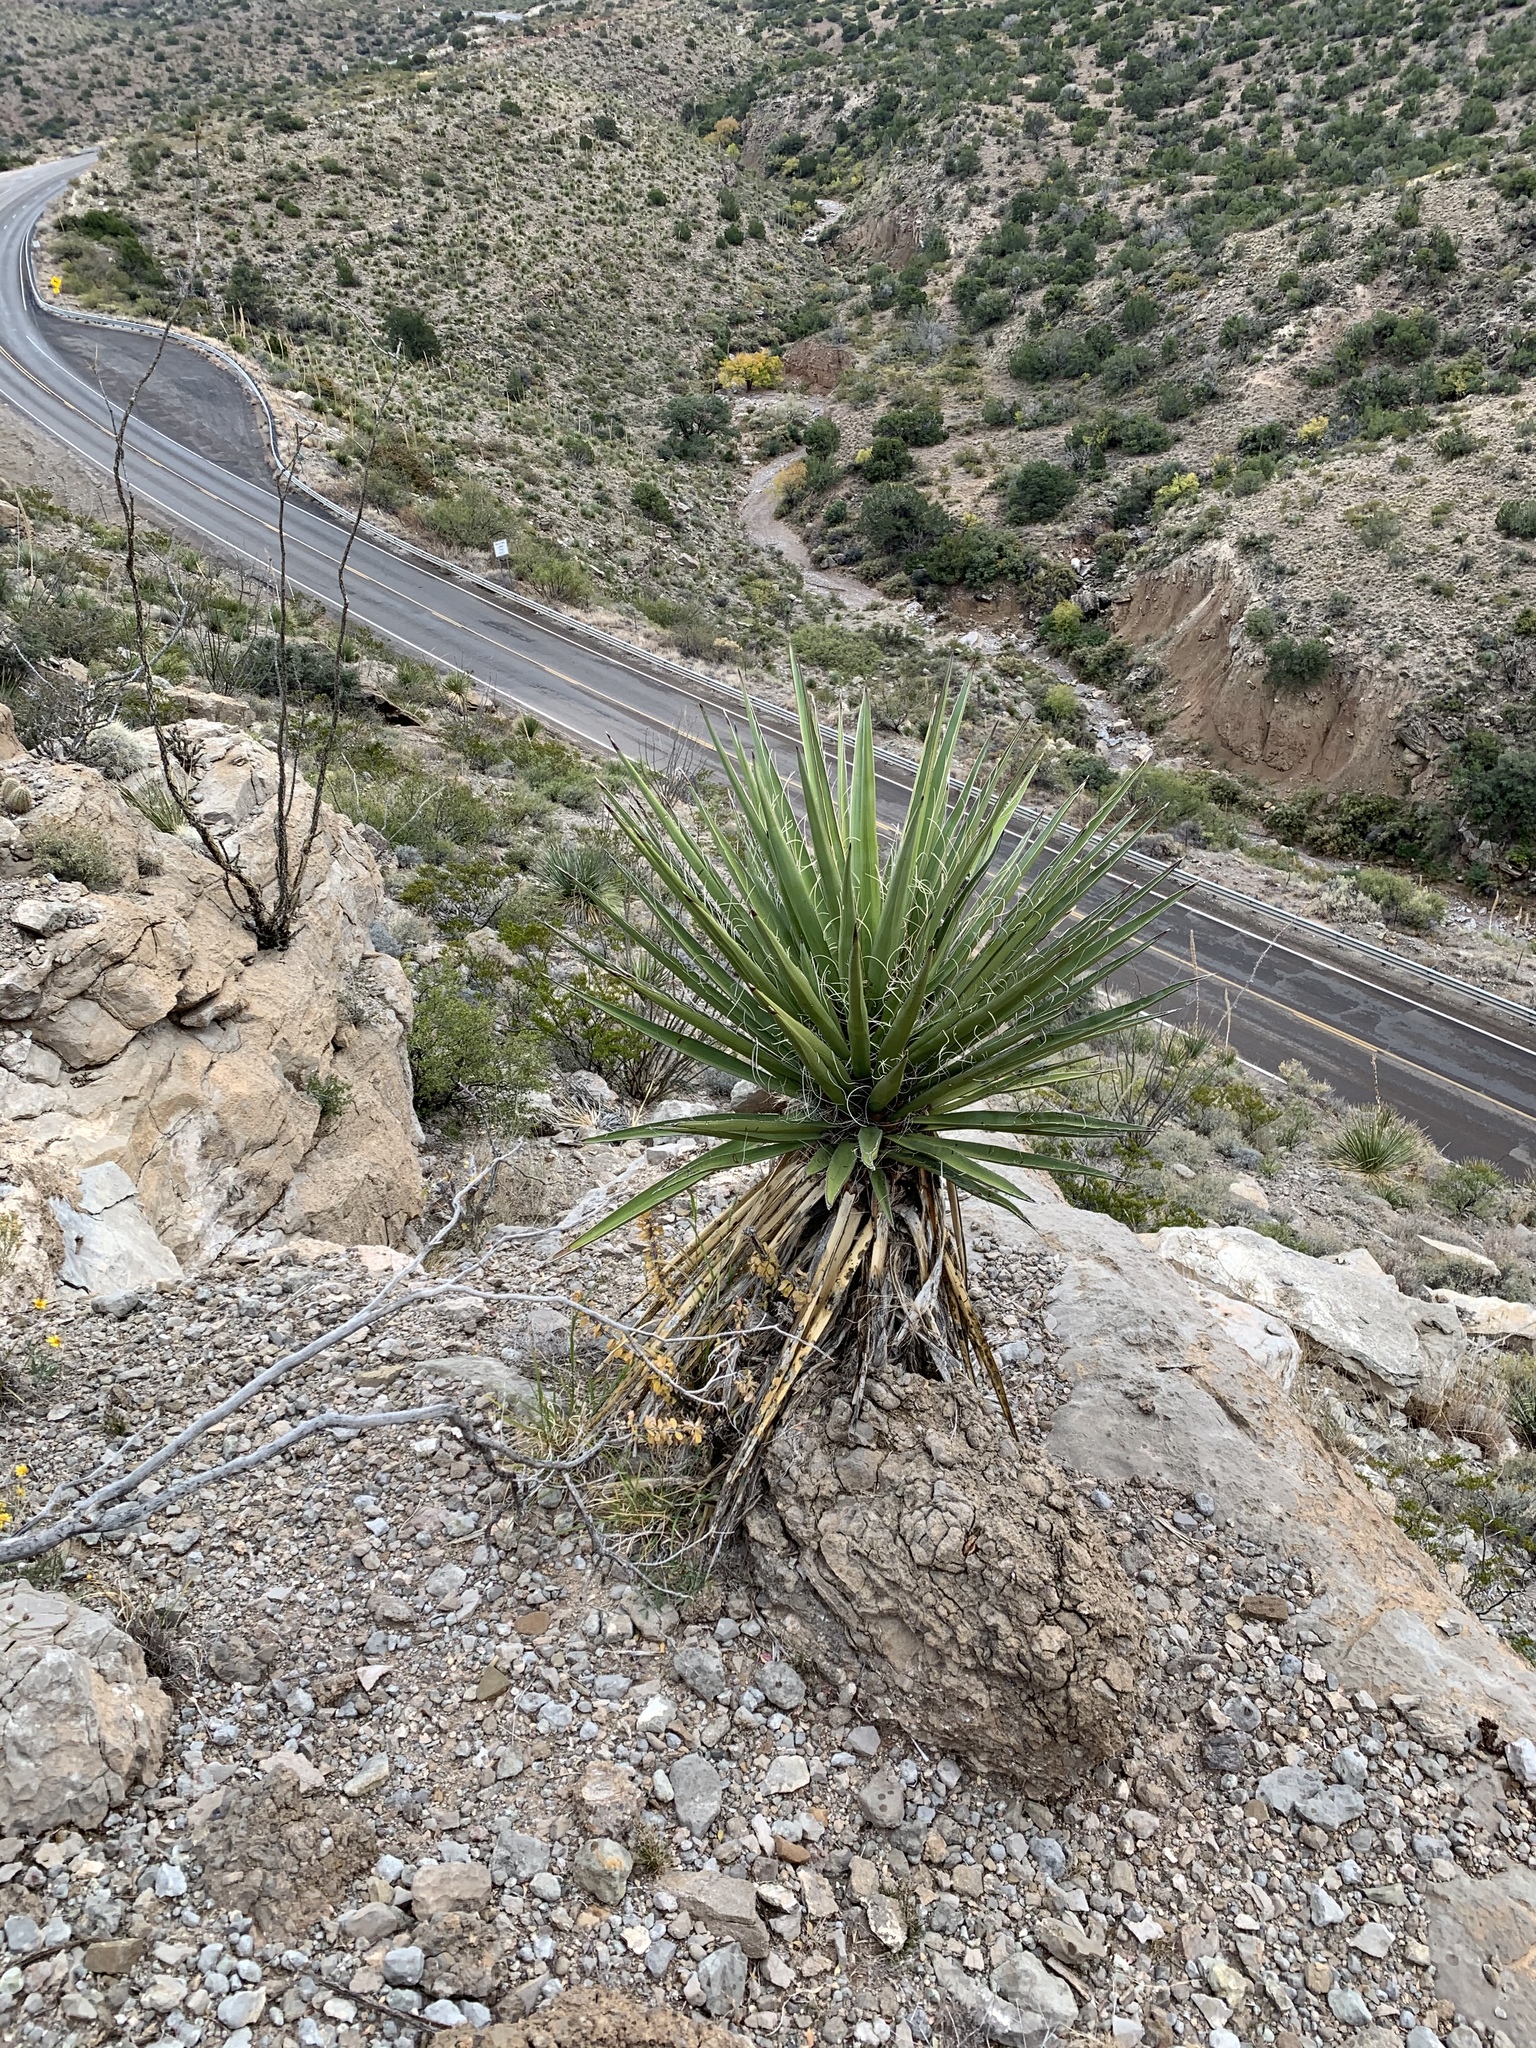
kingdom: Plantae
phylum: Tracheophyta
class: Liliopsida
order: Asparagales
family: Asparagaceae
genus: Yucca
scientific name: Yucca treculiana
